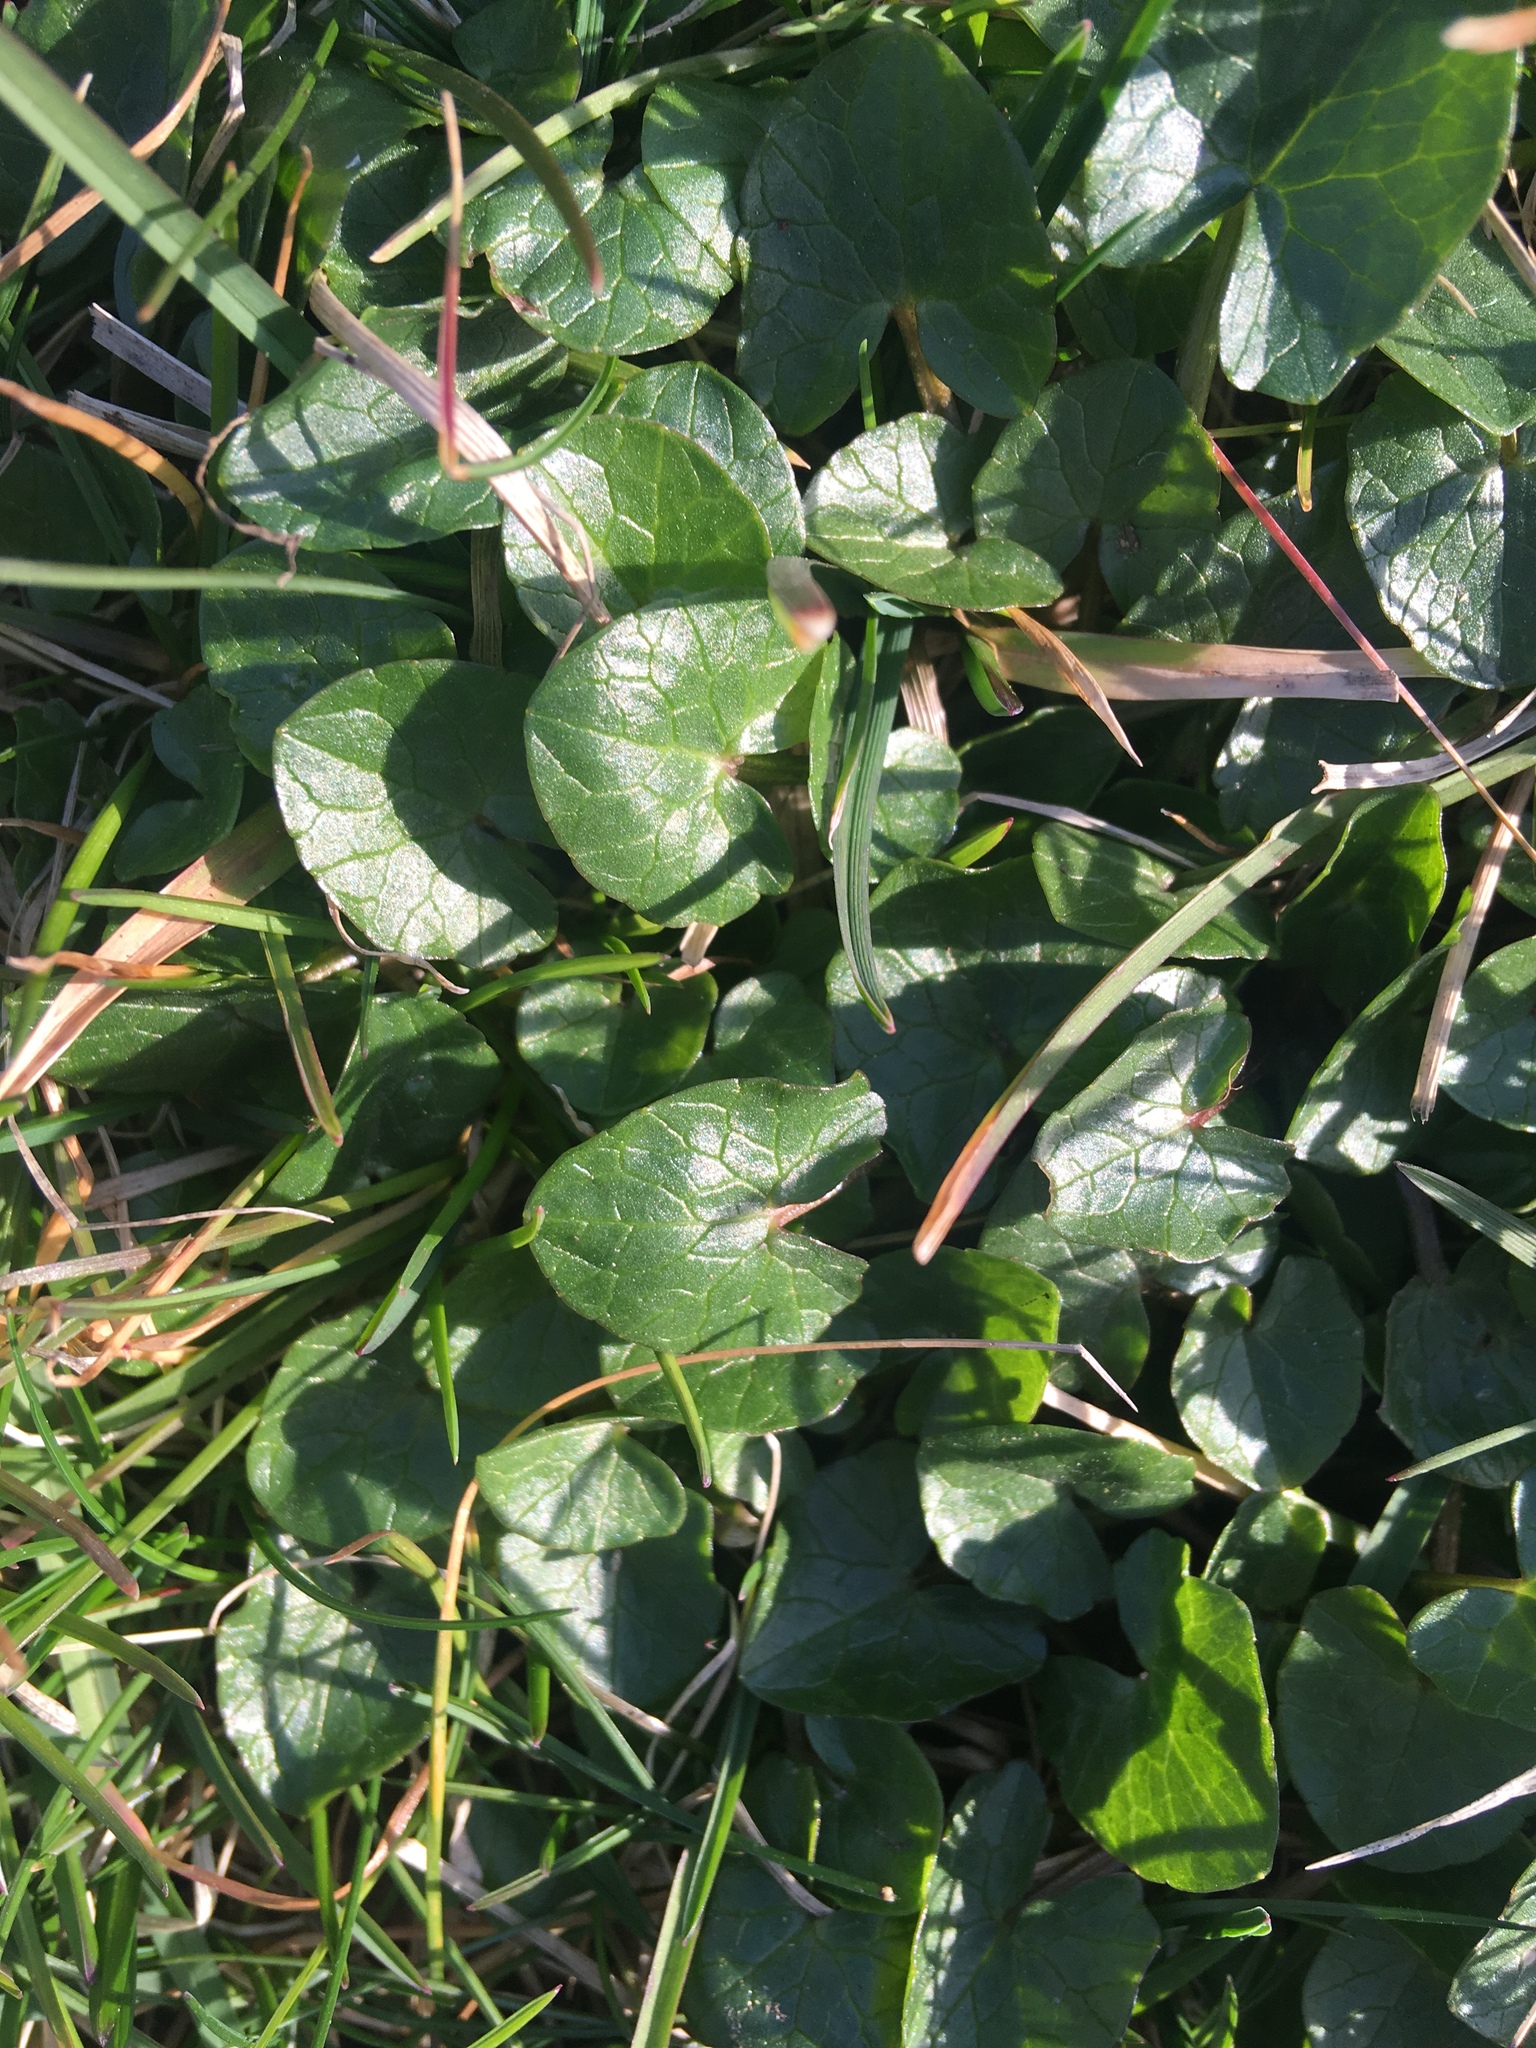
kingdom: Plantae
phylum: Tracheophyta
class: Magnoliopsida
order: Ranunculales
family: Ranunculaceae
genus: Ficaria
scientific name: Ficaria verna
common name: Lesser celandine
